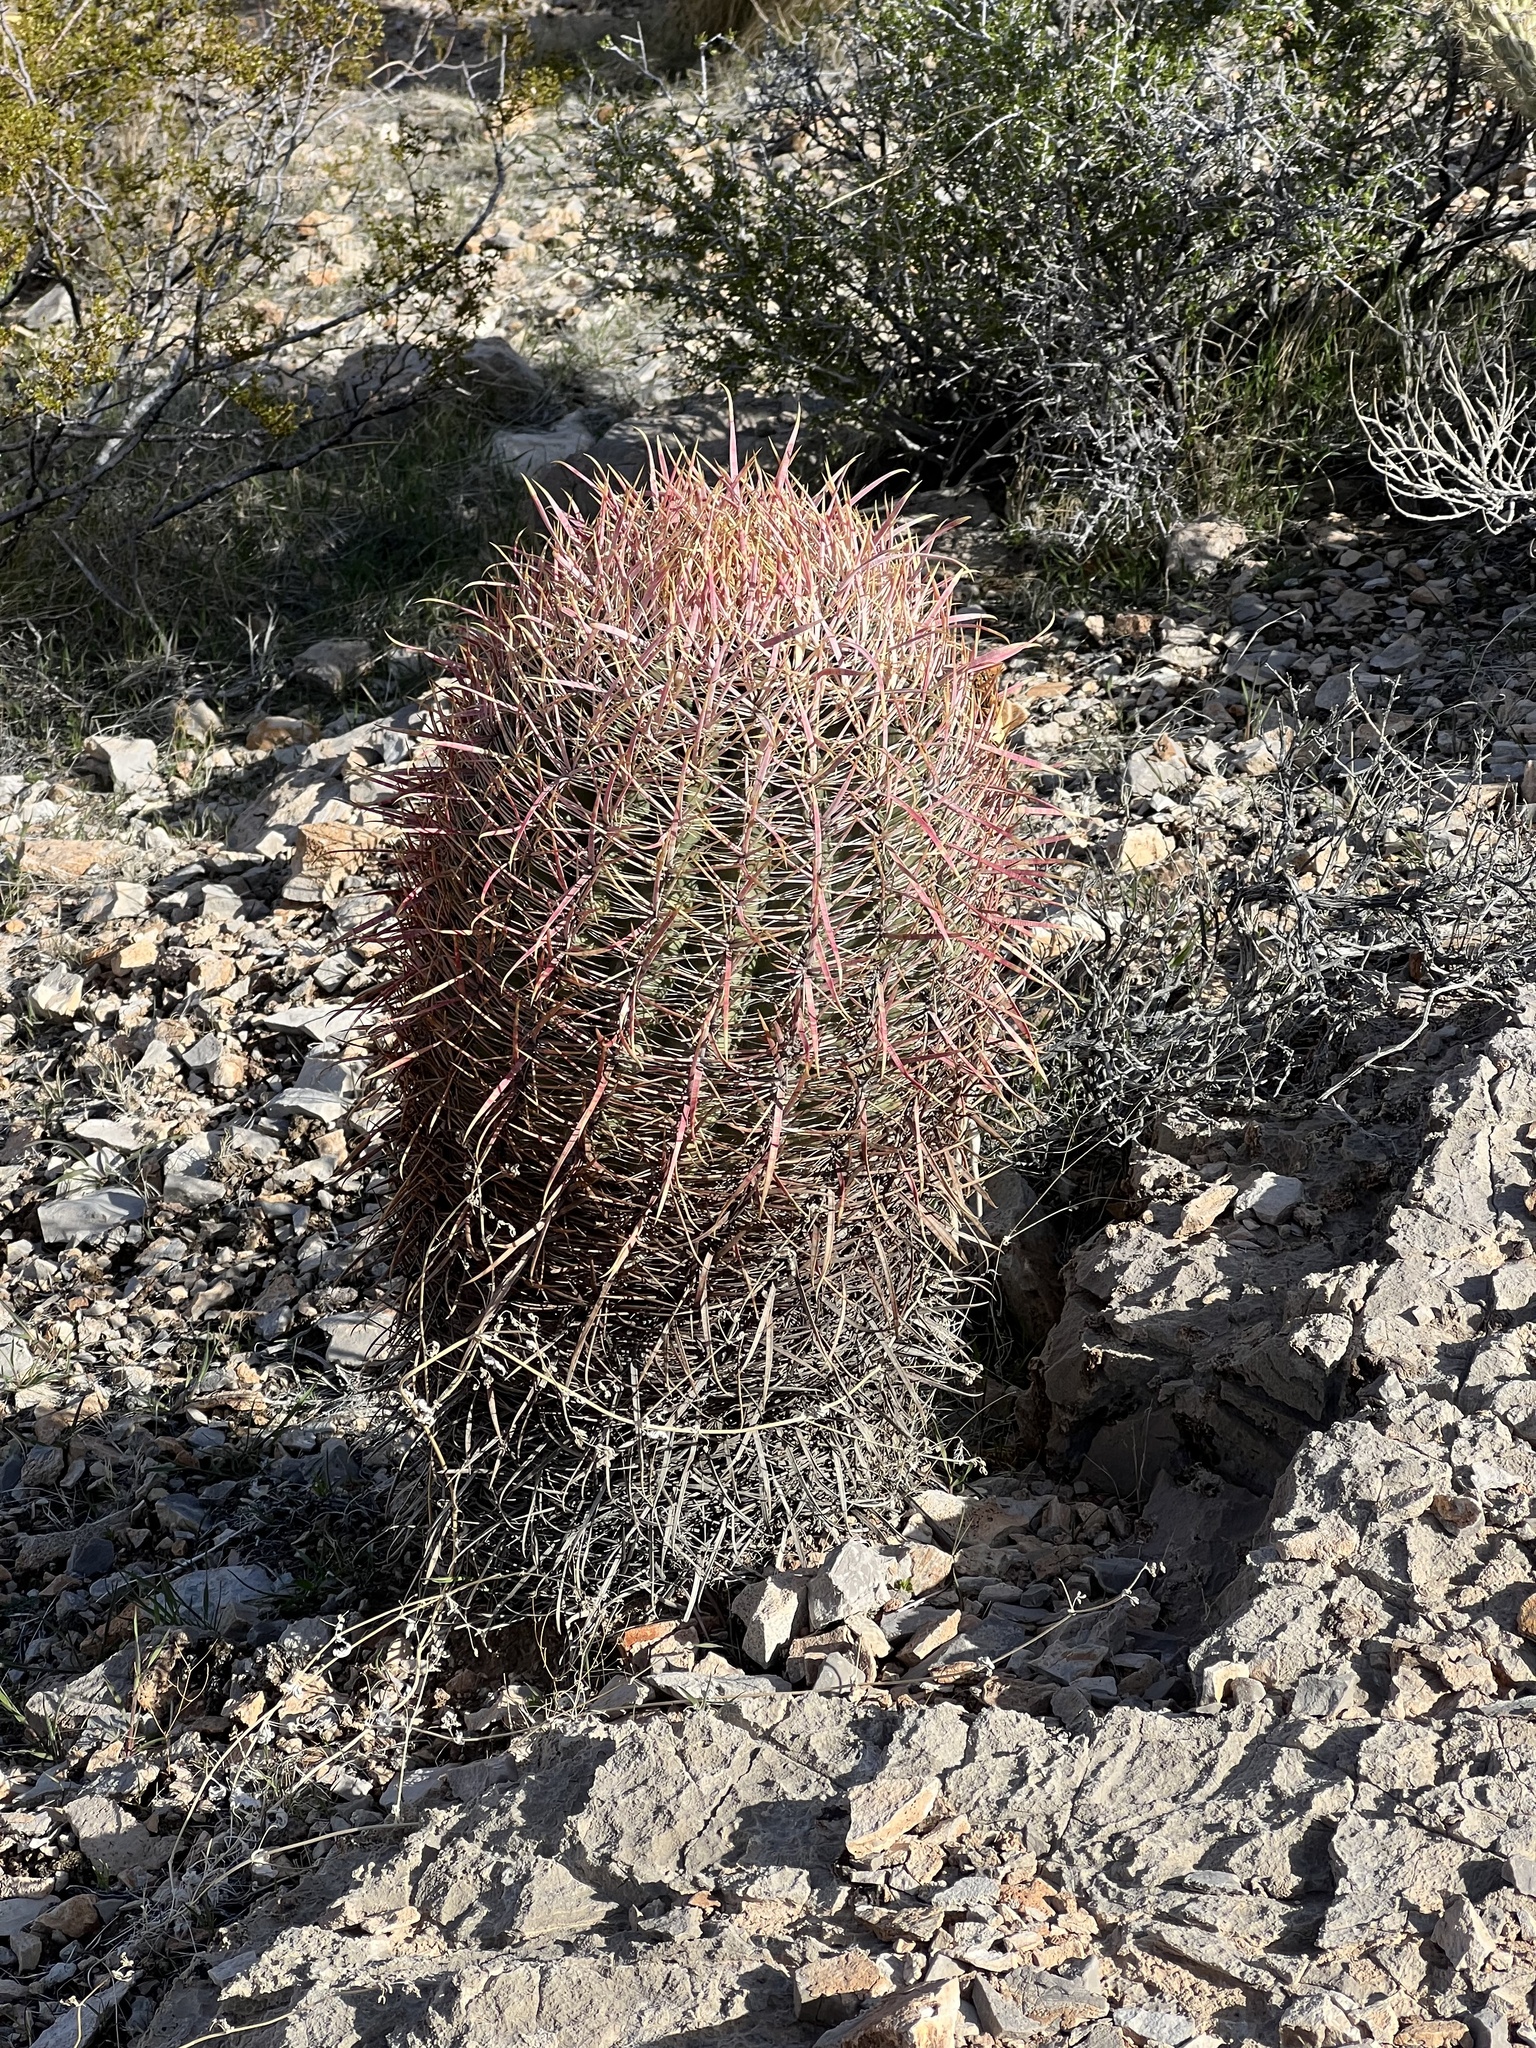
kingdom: Plantae
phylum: Tracheophyta
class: Magnoliopsida
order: Caryophyllales
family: Cactaceae
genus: Ferocactus
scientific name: Ferocactus cylindraceus
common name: California barrel cactus
